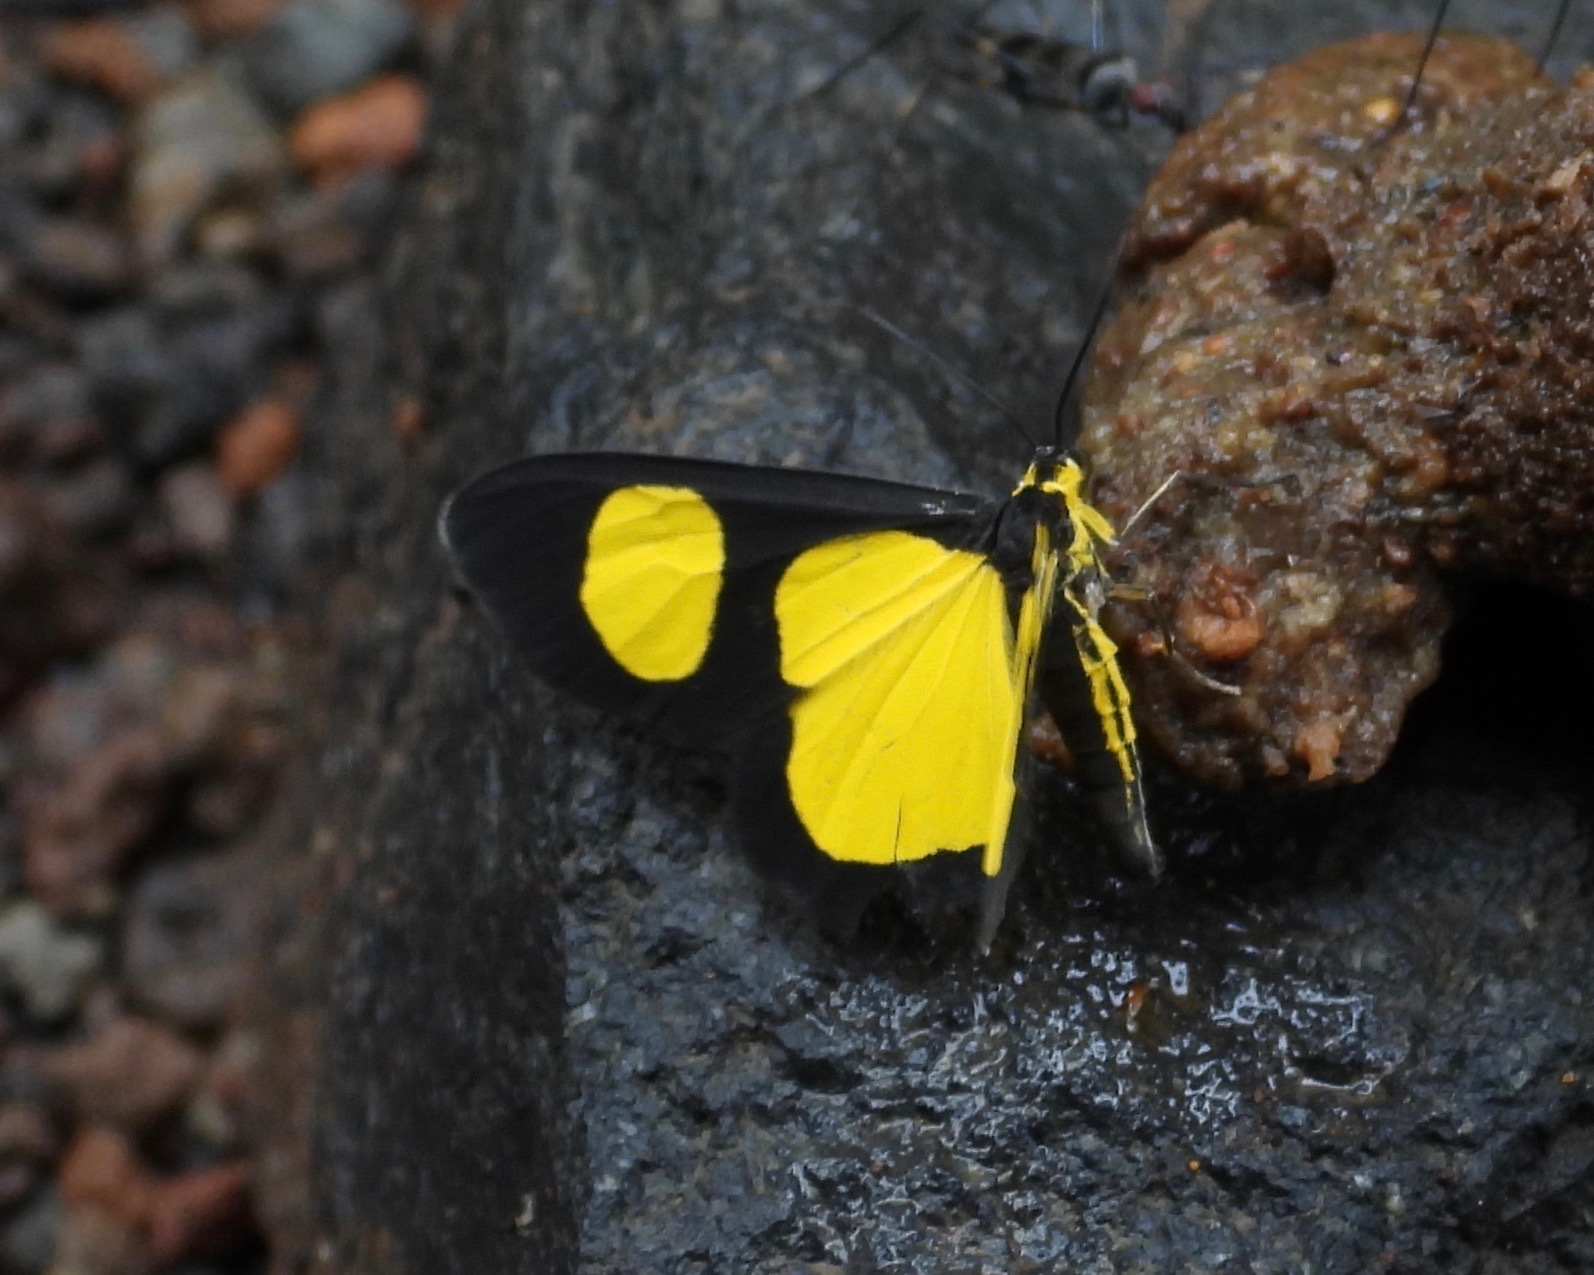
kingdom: Animalia
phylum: Arthropoda
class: Insecta
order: Lepidoptera
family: Geometridae
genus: Atyriodes
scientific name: Atyriodes jalapae
